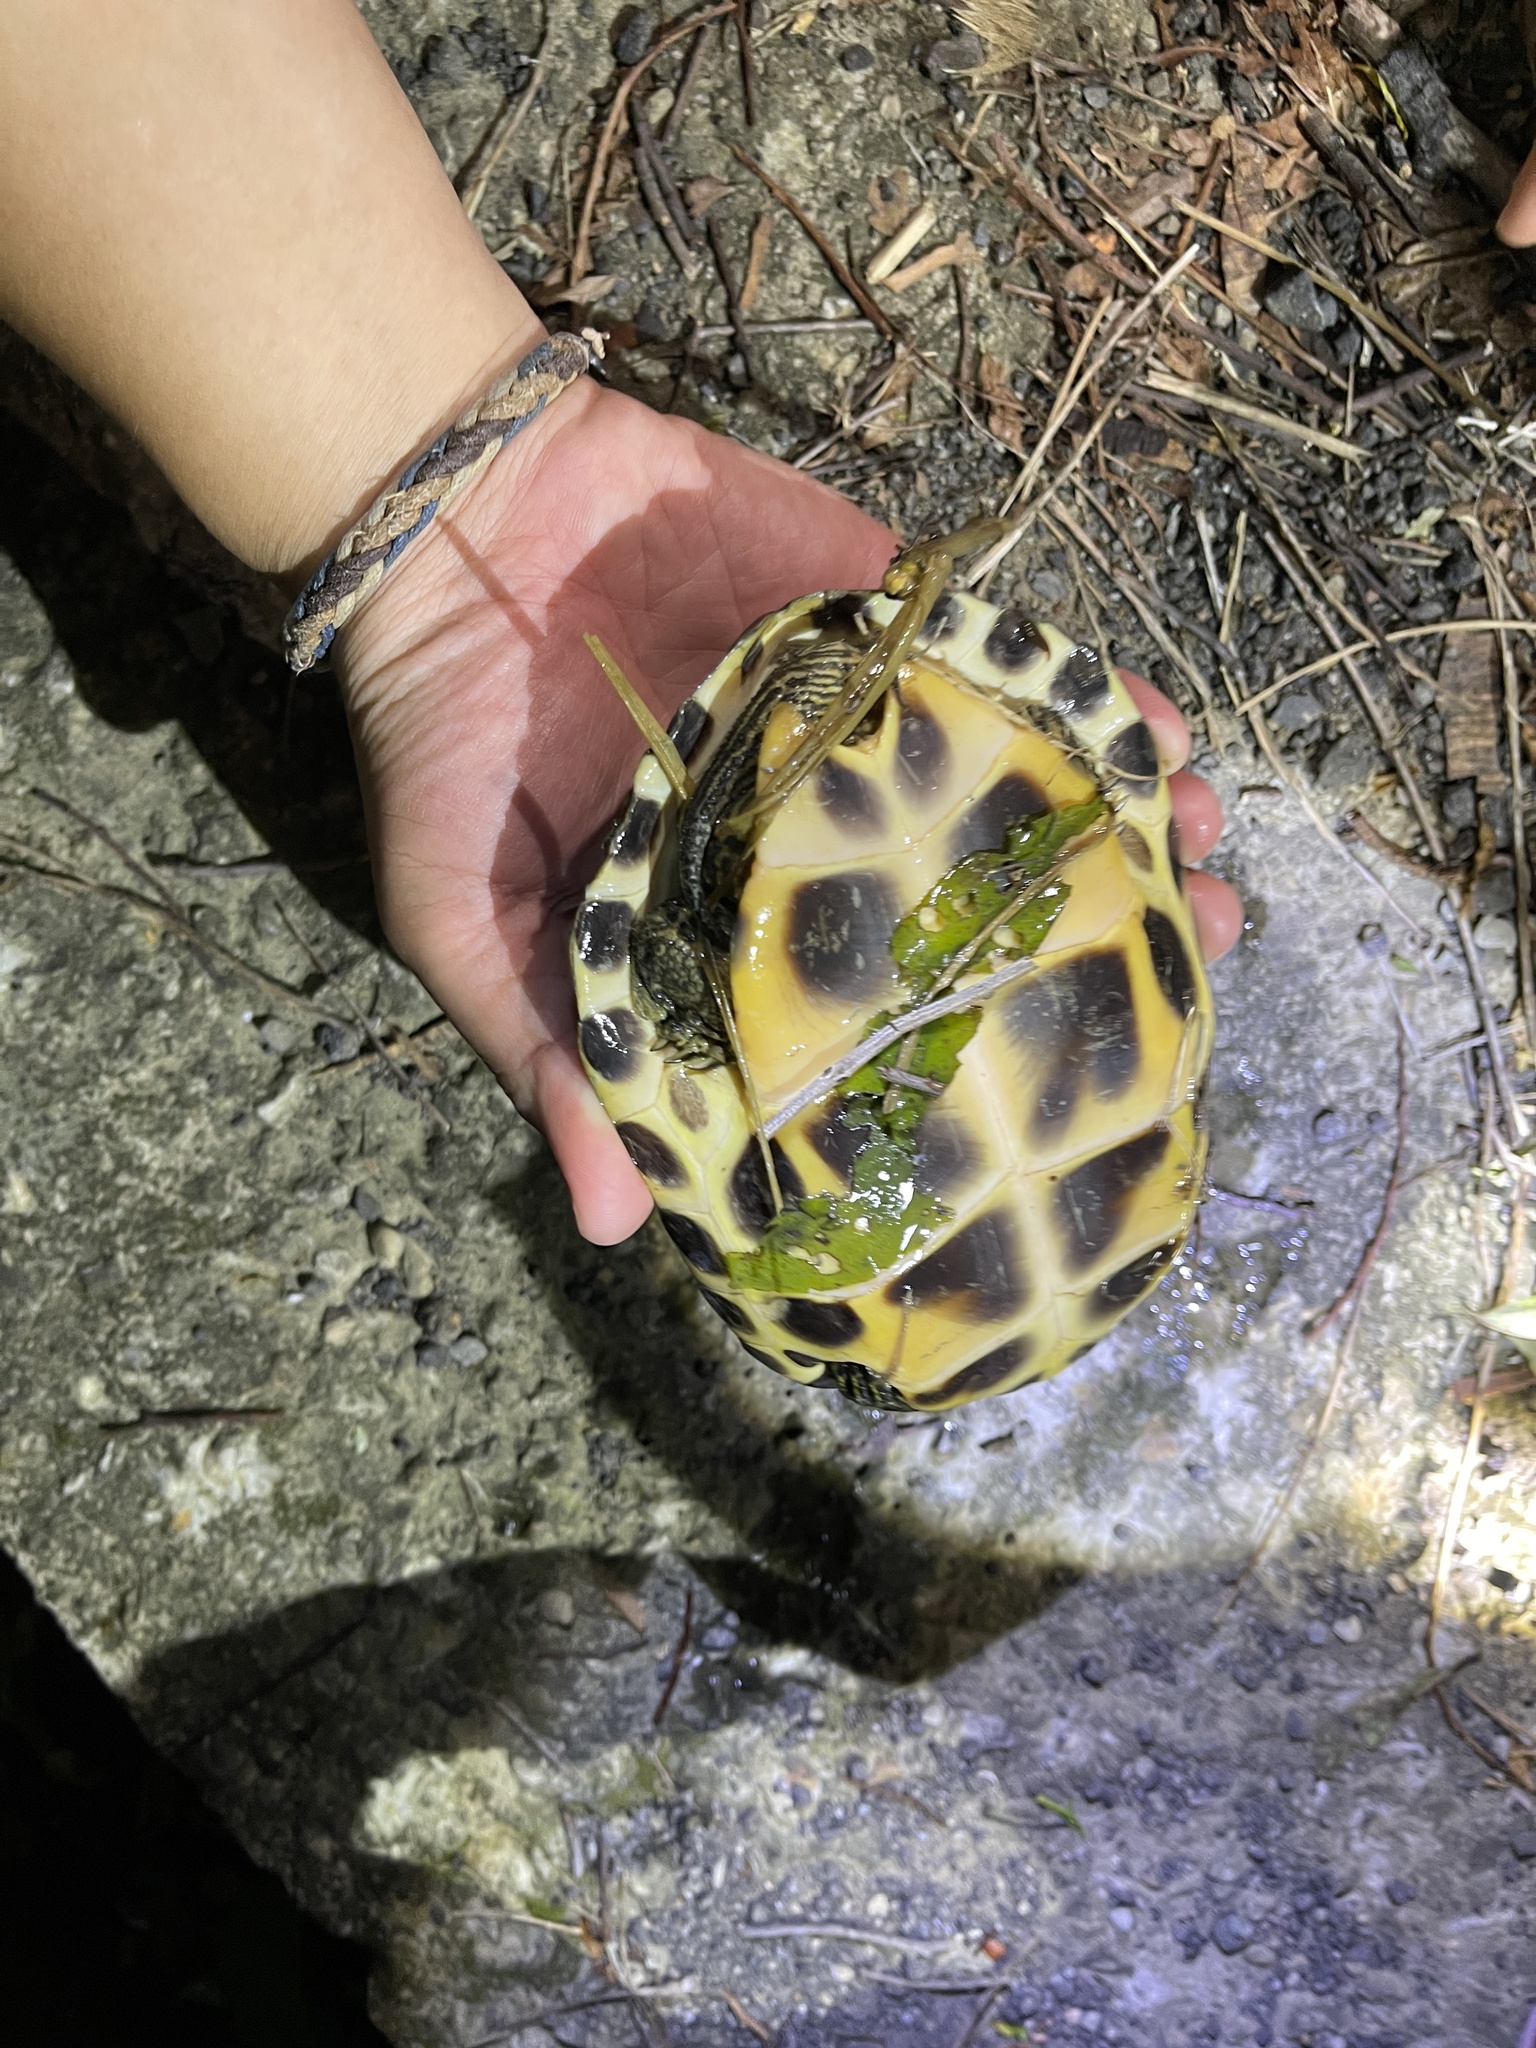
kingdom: Animalia
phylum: Chordata
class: Testudines
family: Geoemydidae
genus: Mauremys
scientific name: Mauremys sinensis
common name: Chinese stripe-necked turtle
